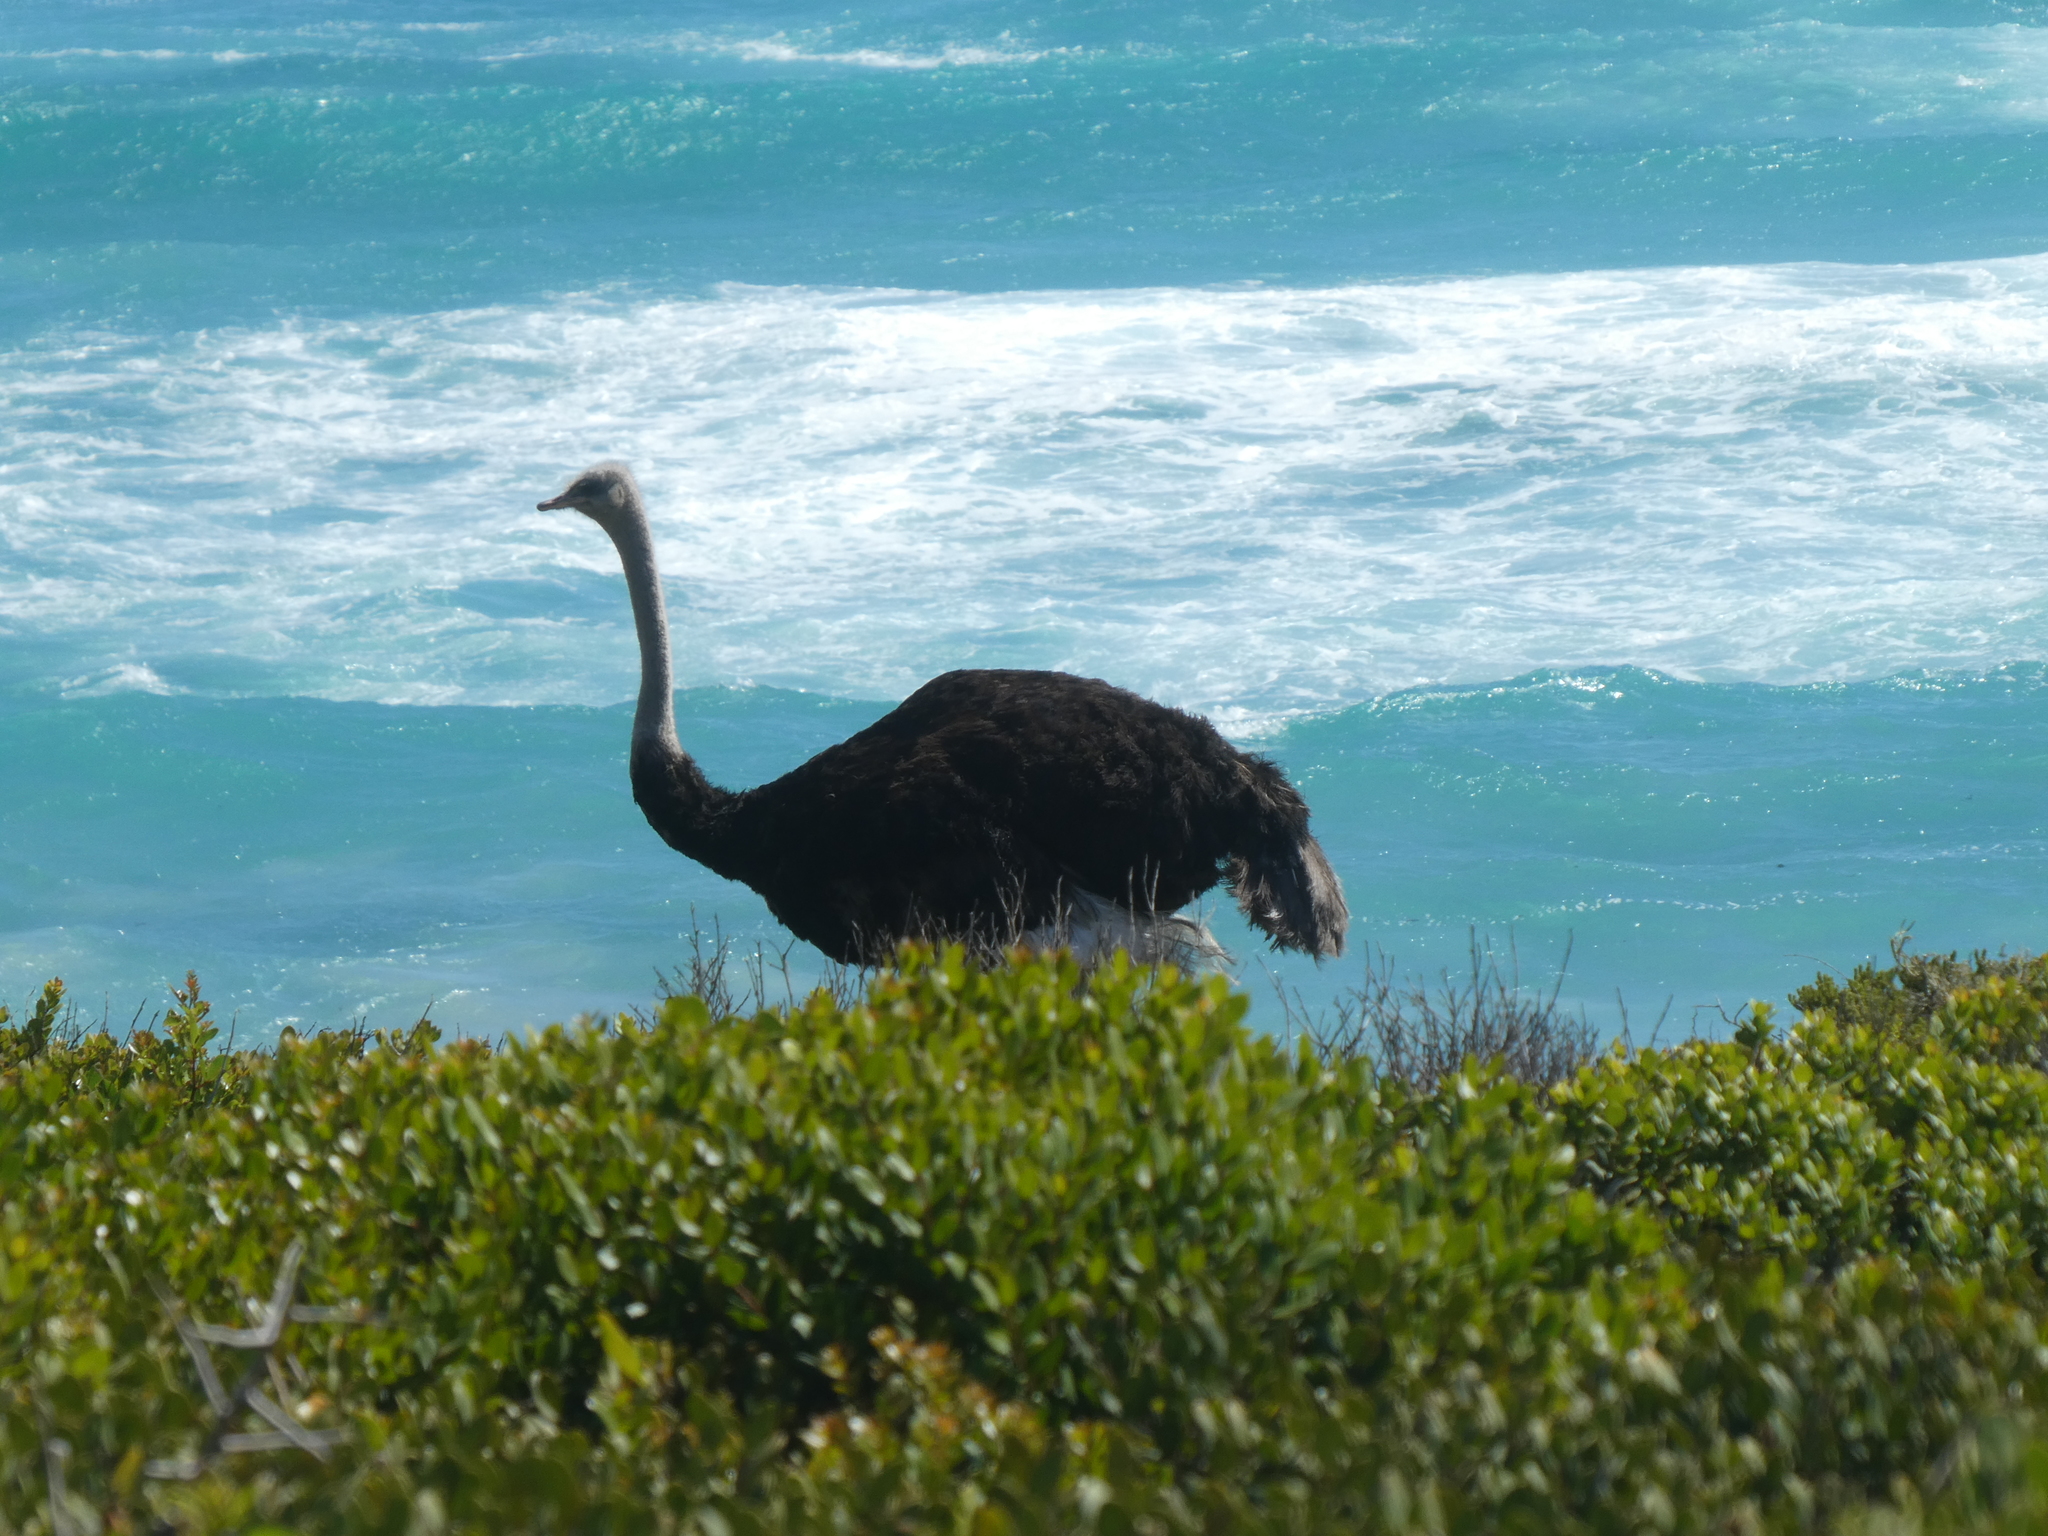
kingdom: Animalia
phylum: Chordata
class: Aves
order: Struthioniformes
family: Struthionidae
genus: Struthio
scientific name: Struthio camelus
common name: Common ostrich
